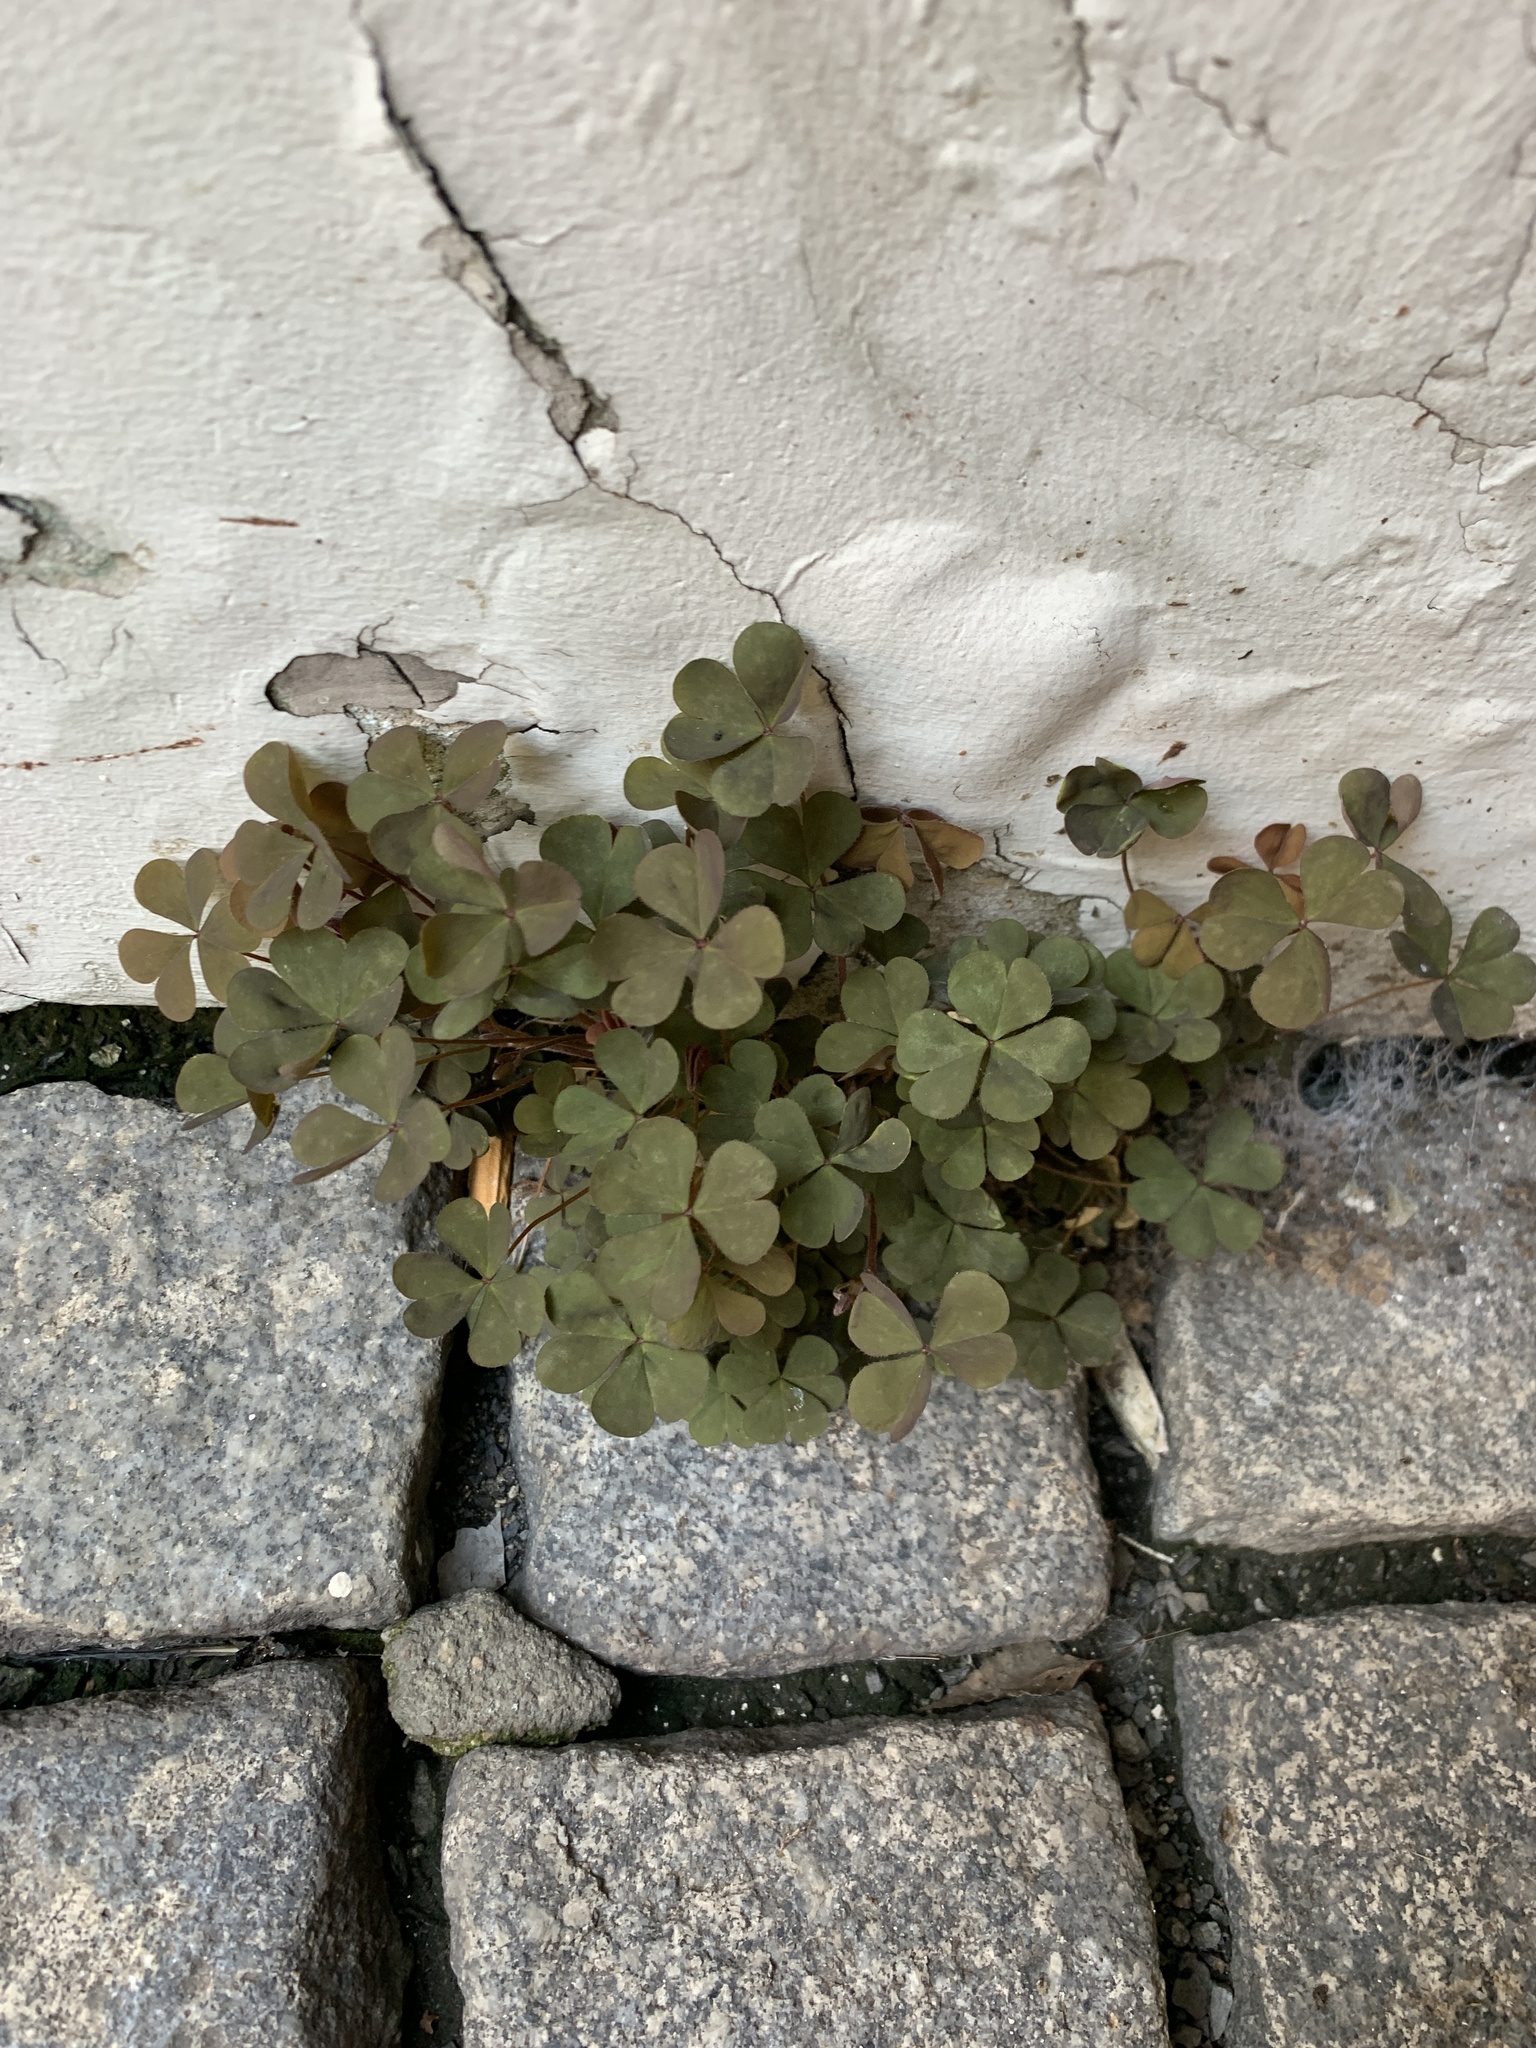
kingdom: Plantae
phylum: Tracheophyta
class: Magnoliopsida
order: Oxalidales
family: Oxalidaceae
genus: Oxalis
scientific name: Oxalis corniculata
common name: Procumbent yellow-sorrel
